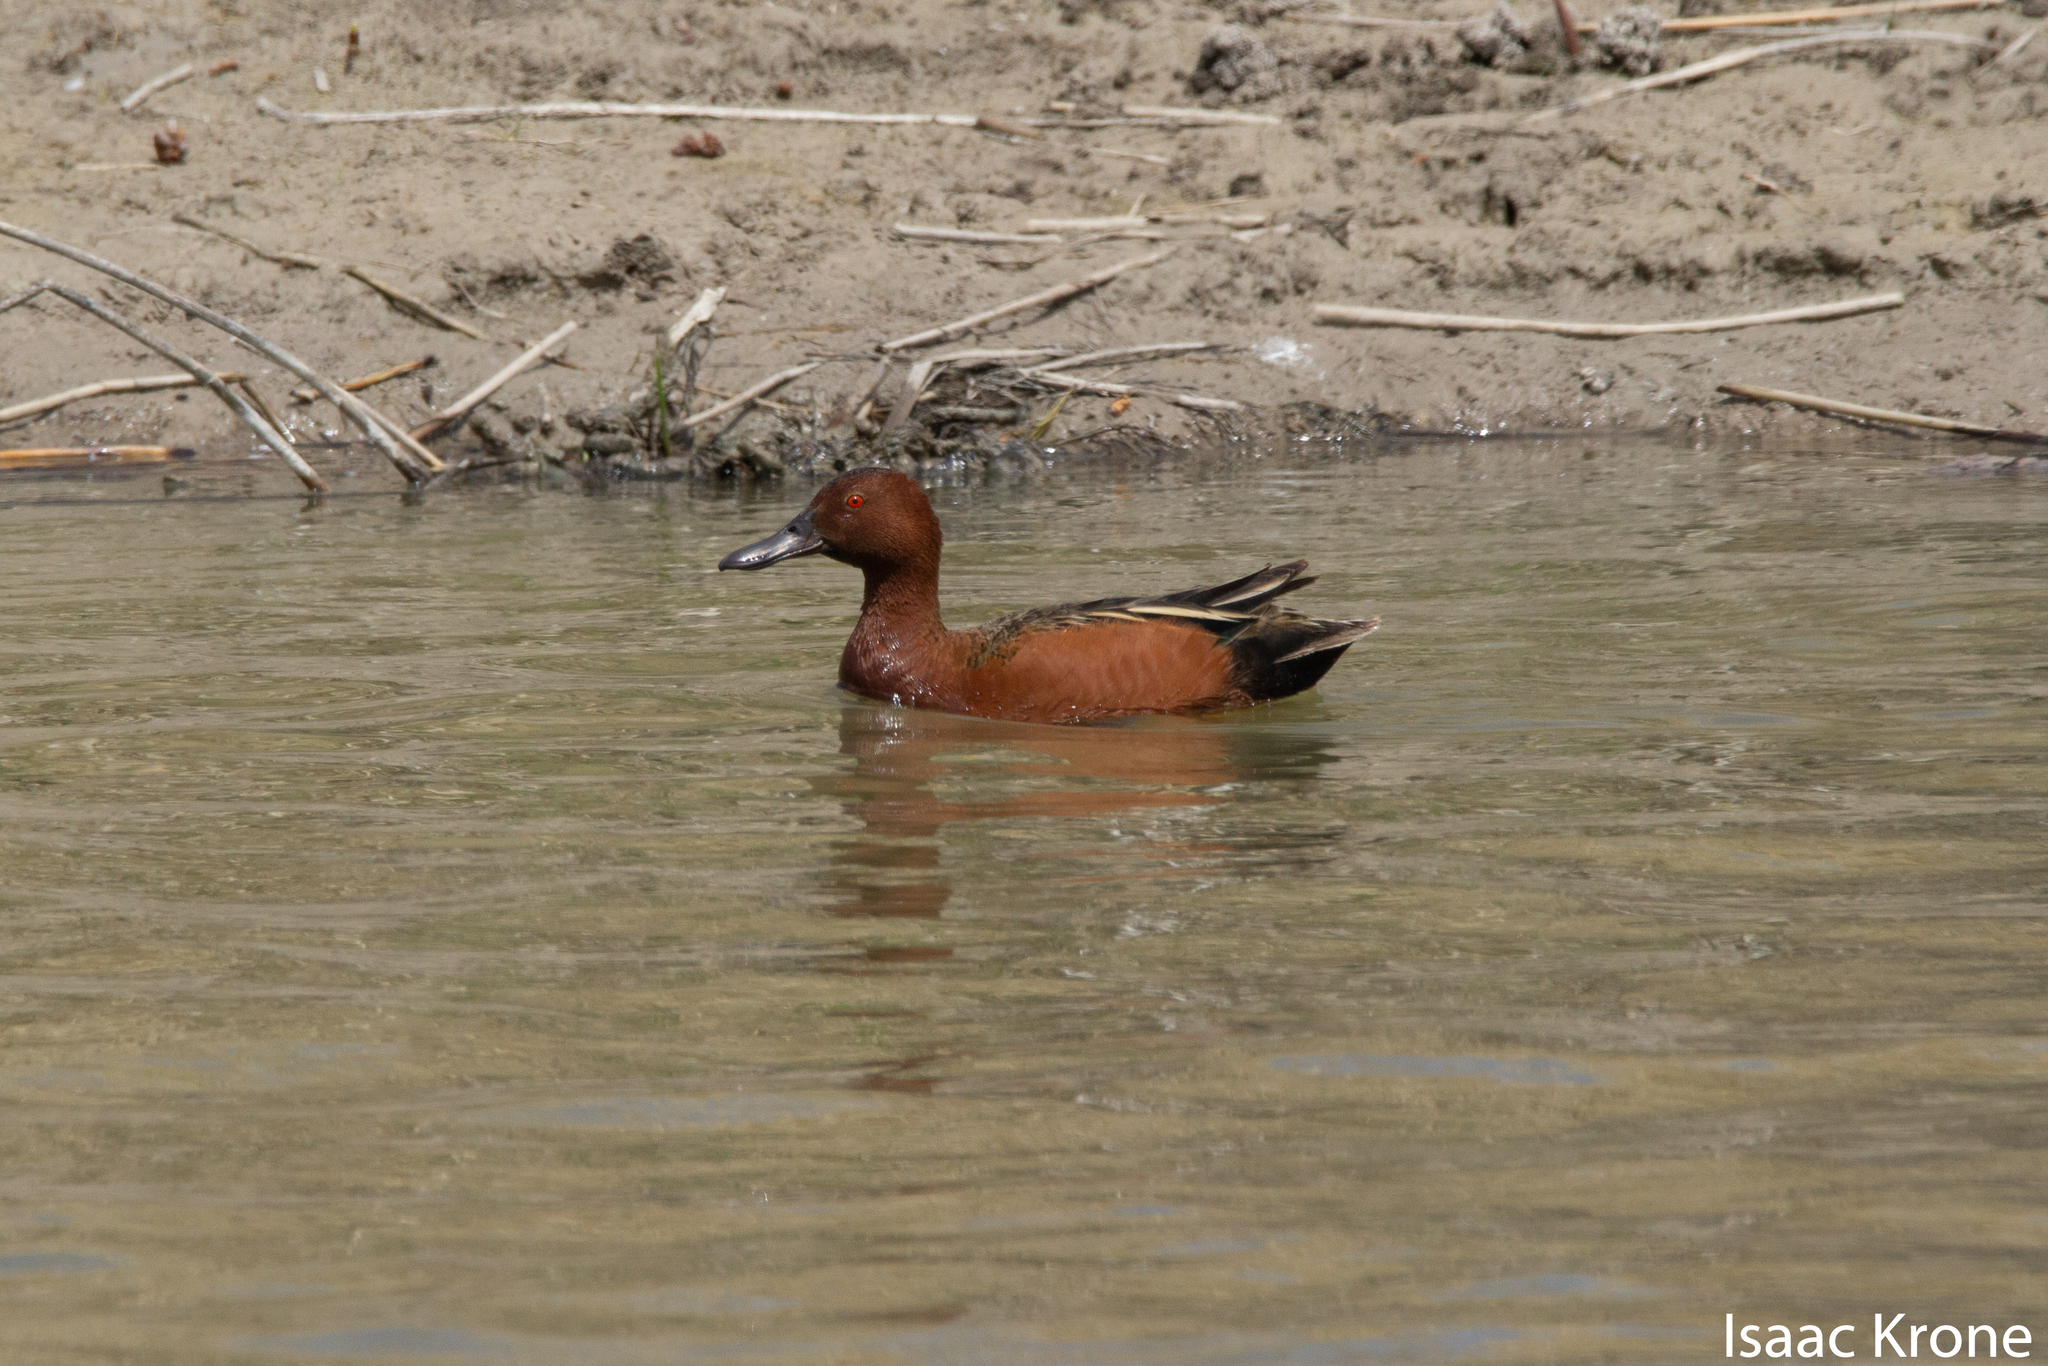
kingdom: Animalia
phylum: Chordata
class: Aves
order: Anseriformes
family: Anatidae
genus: Spatula
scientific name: Spatula cyanoptera
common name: Cinnamon teal
